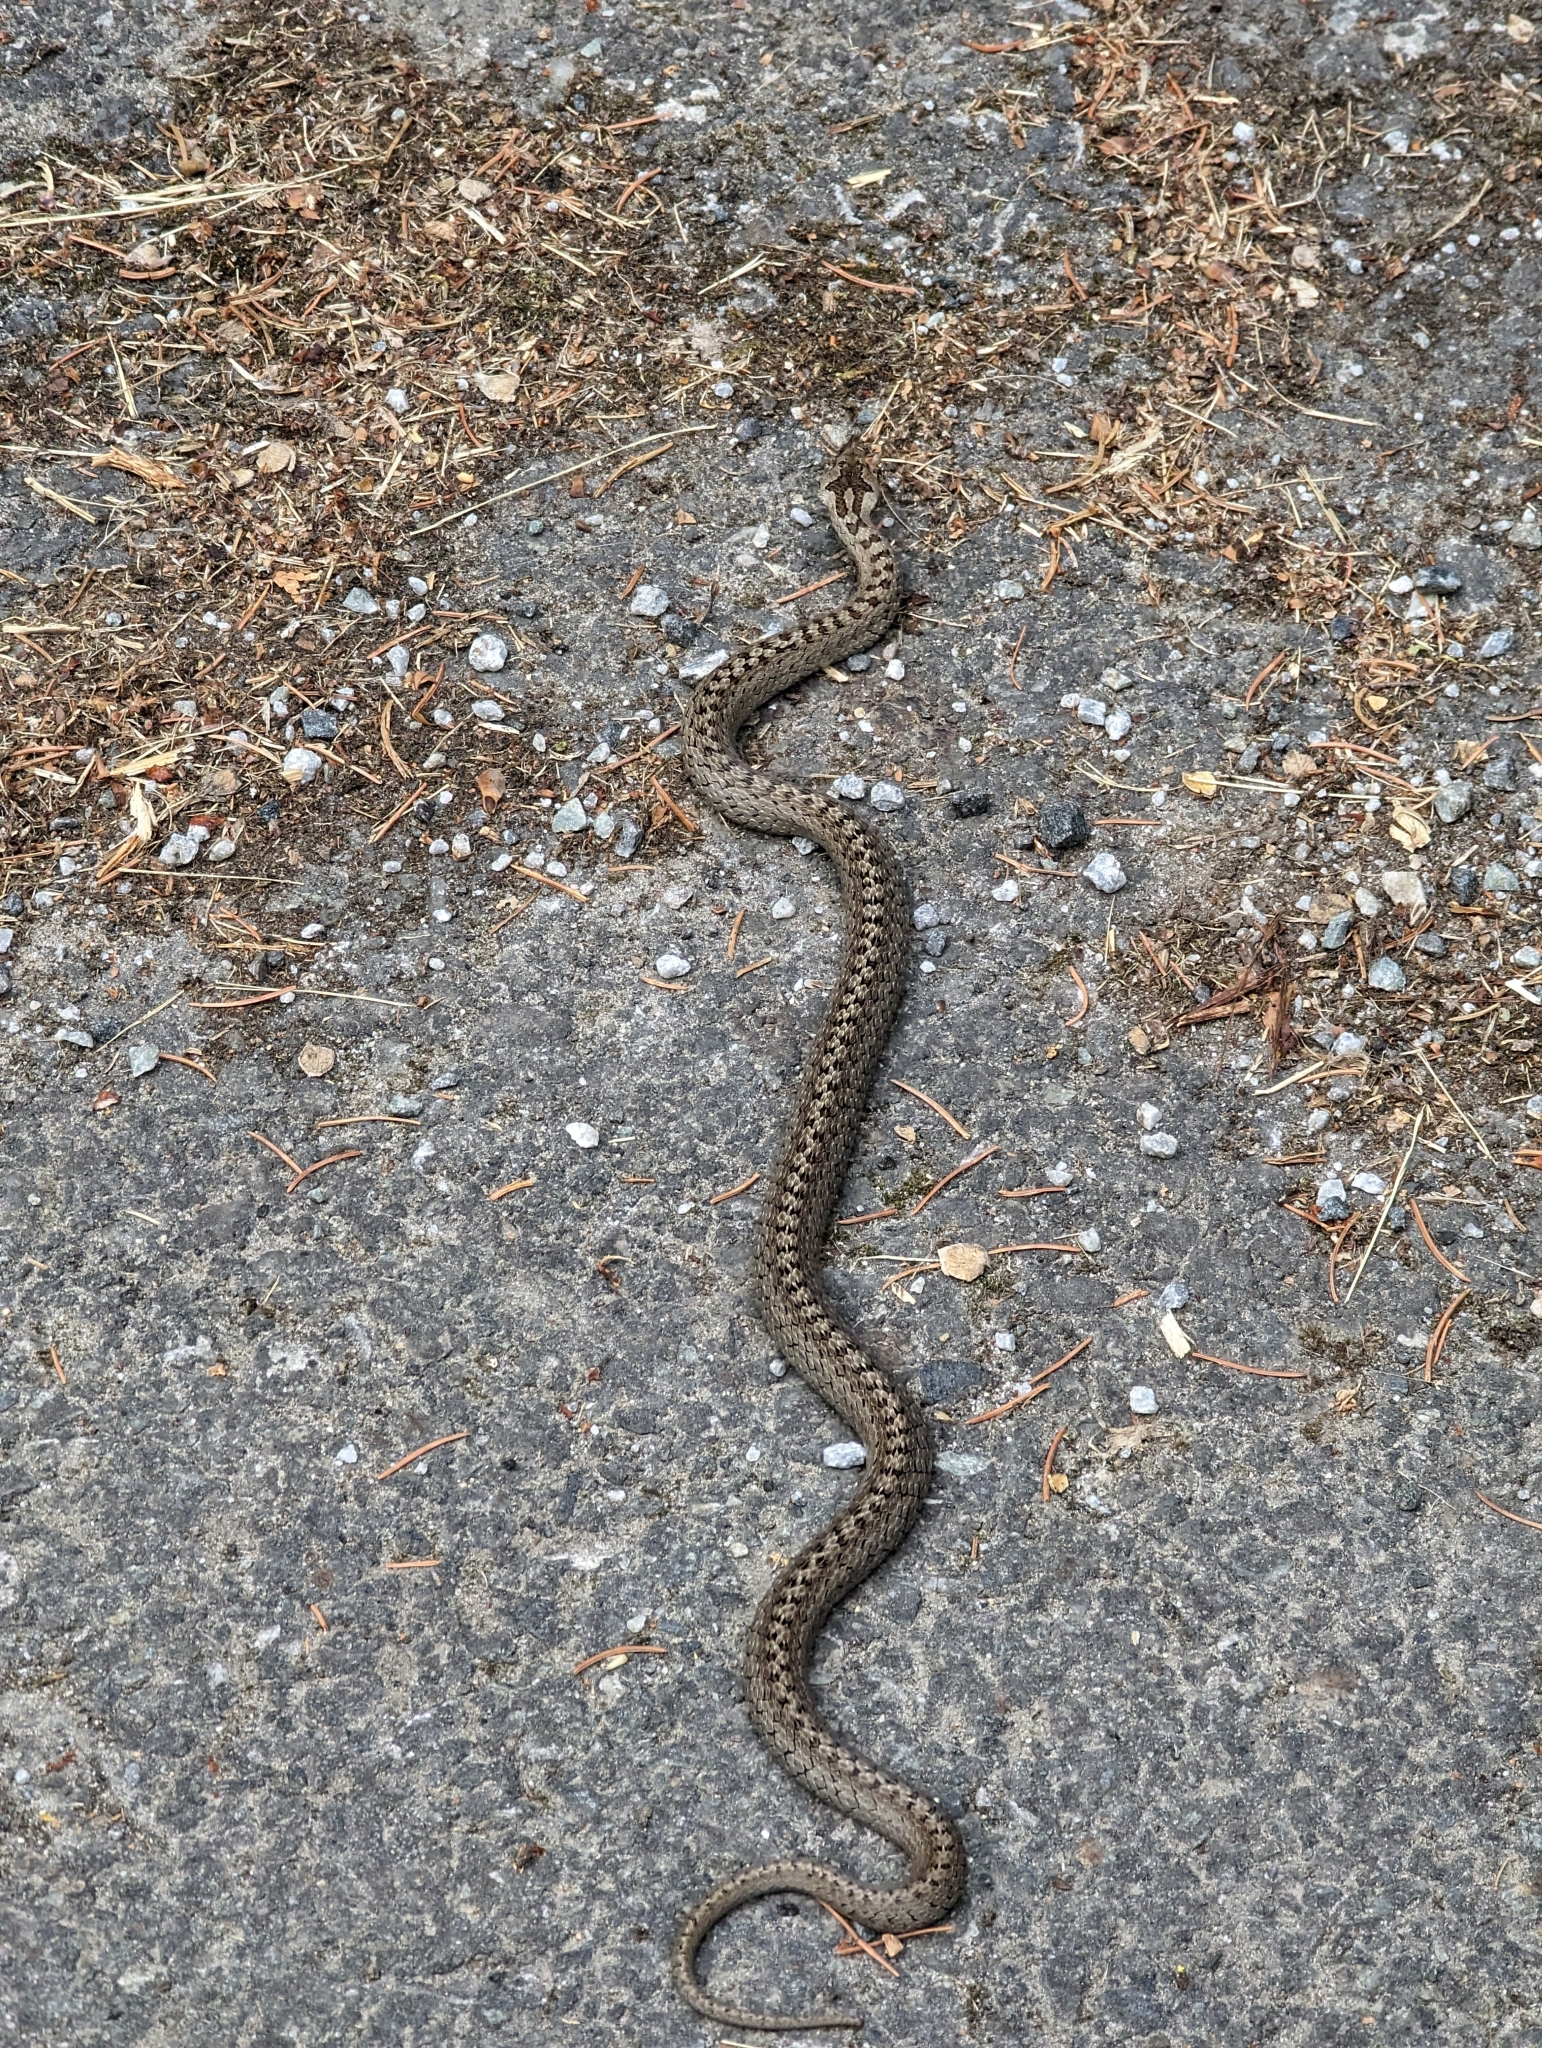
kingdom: Animalia
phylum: Chordata
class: Squamata
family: Colubridae
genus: Coronella
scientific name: Coronella austriaca
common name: Smooth snake
